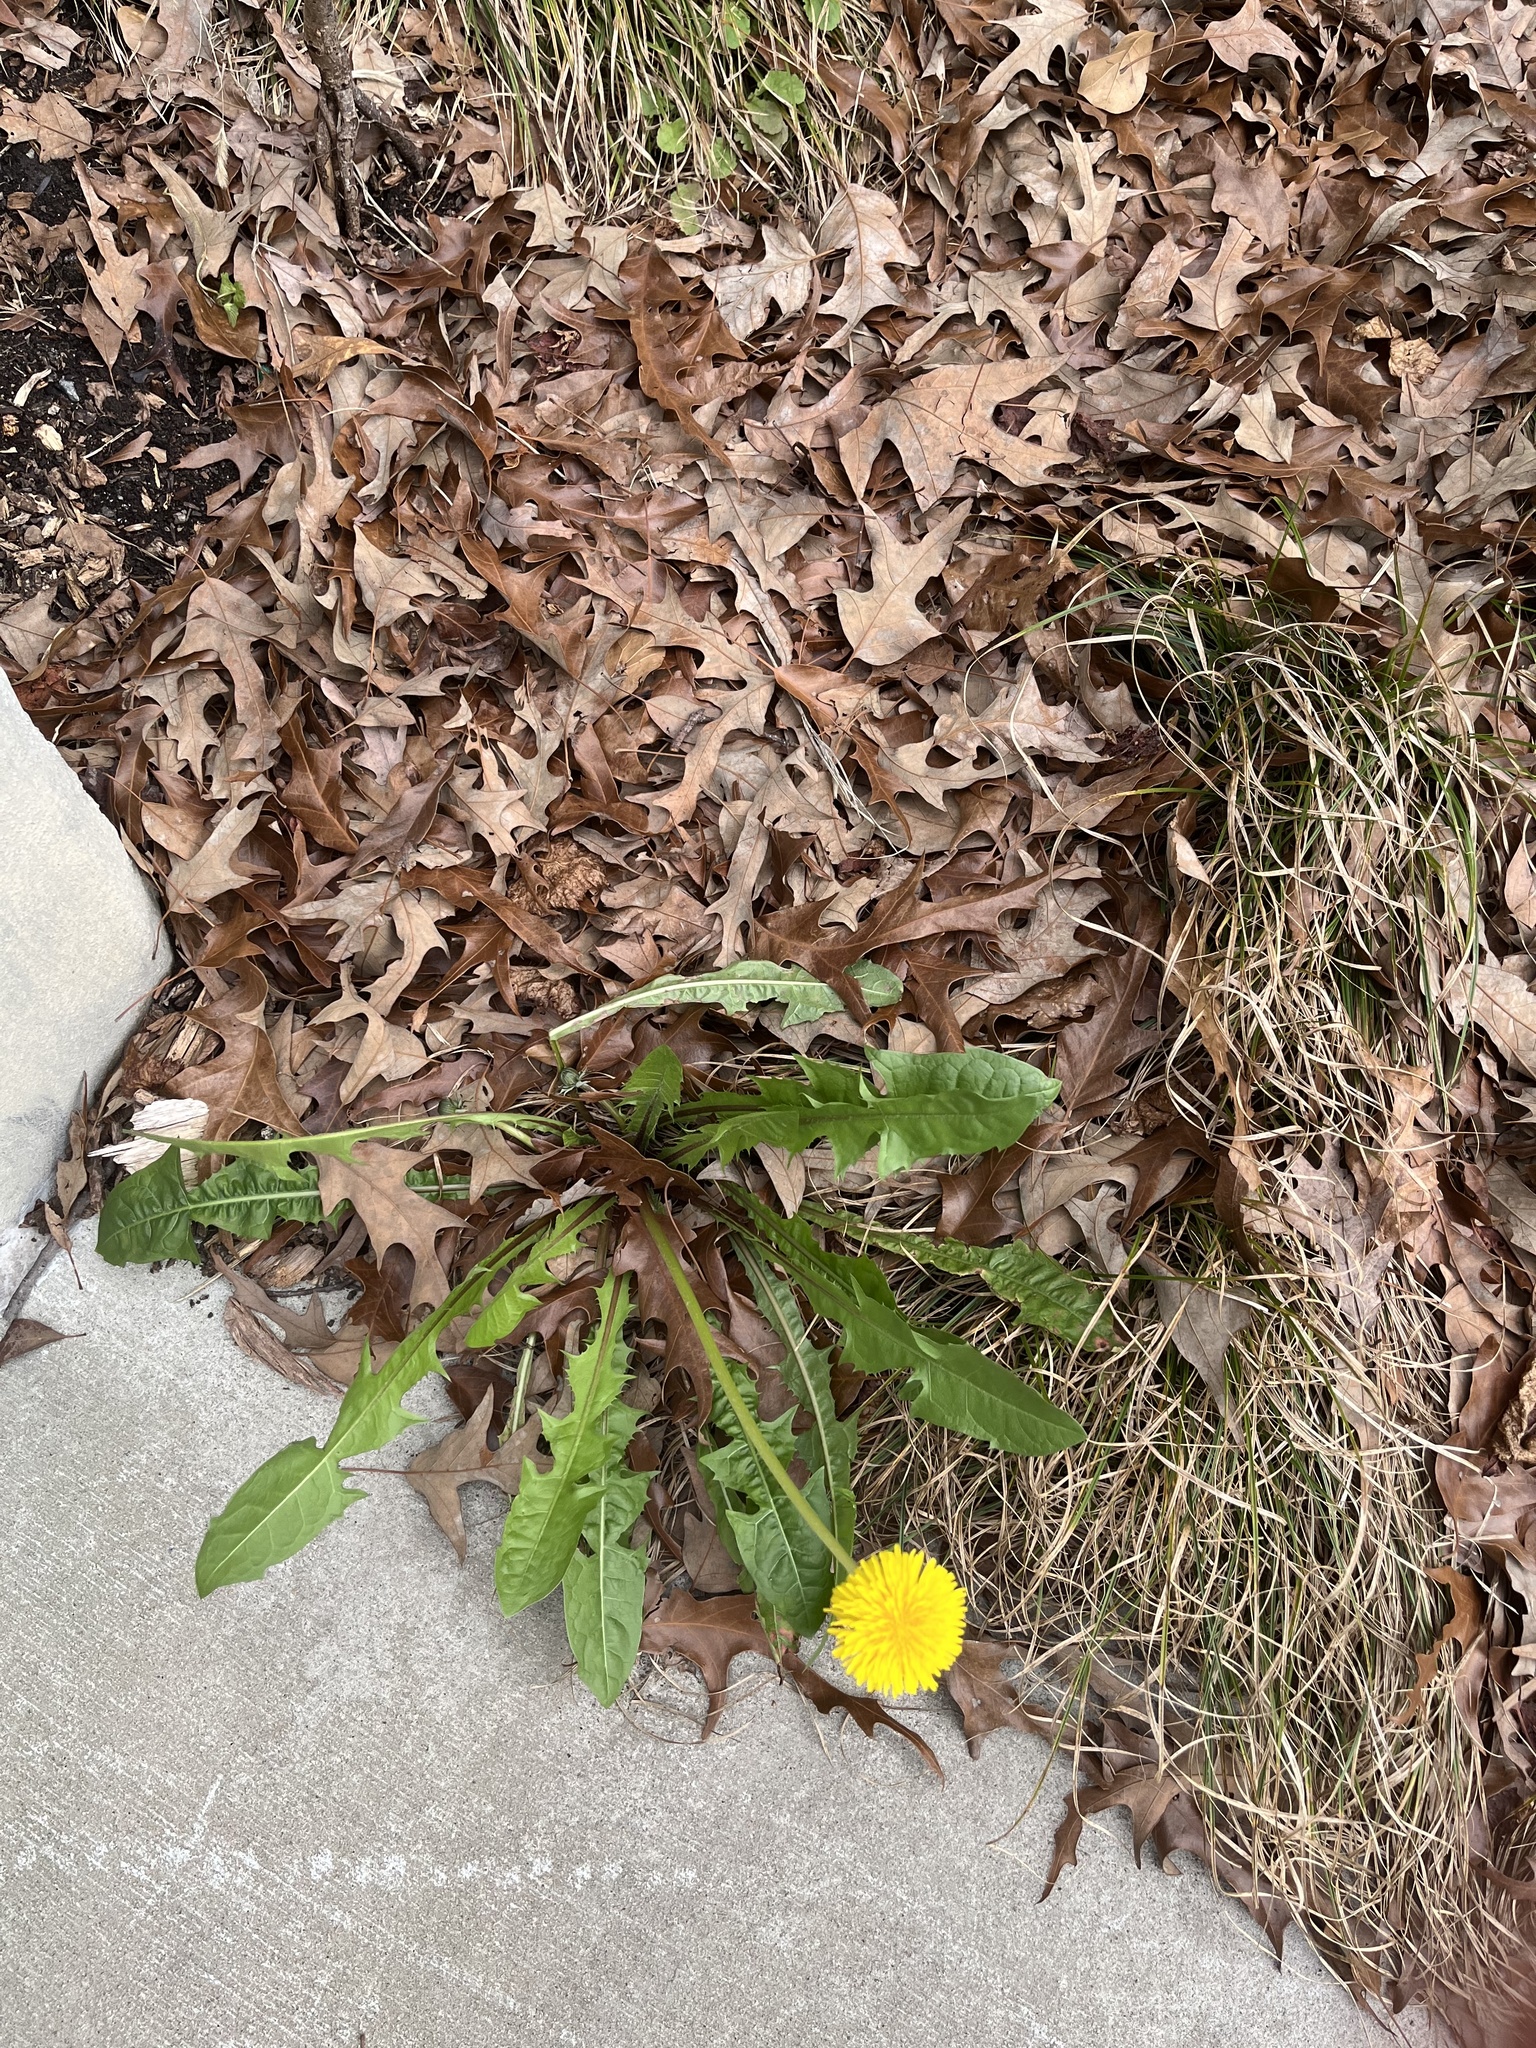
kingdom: Plantae
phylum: Tracheophyta
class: Magnoliopsida
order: Asterales
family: Asteraceae
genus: Taraxacum
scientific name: Taraxacum
